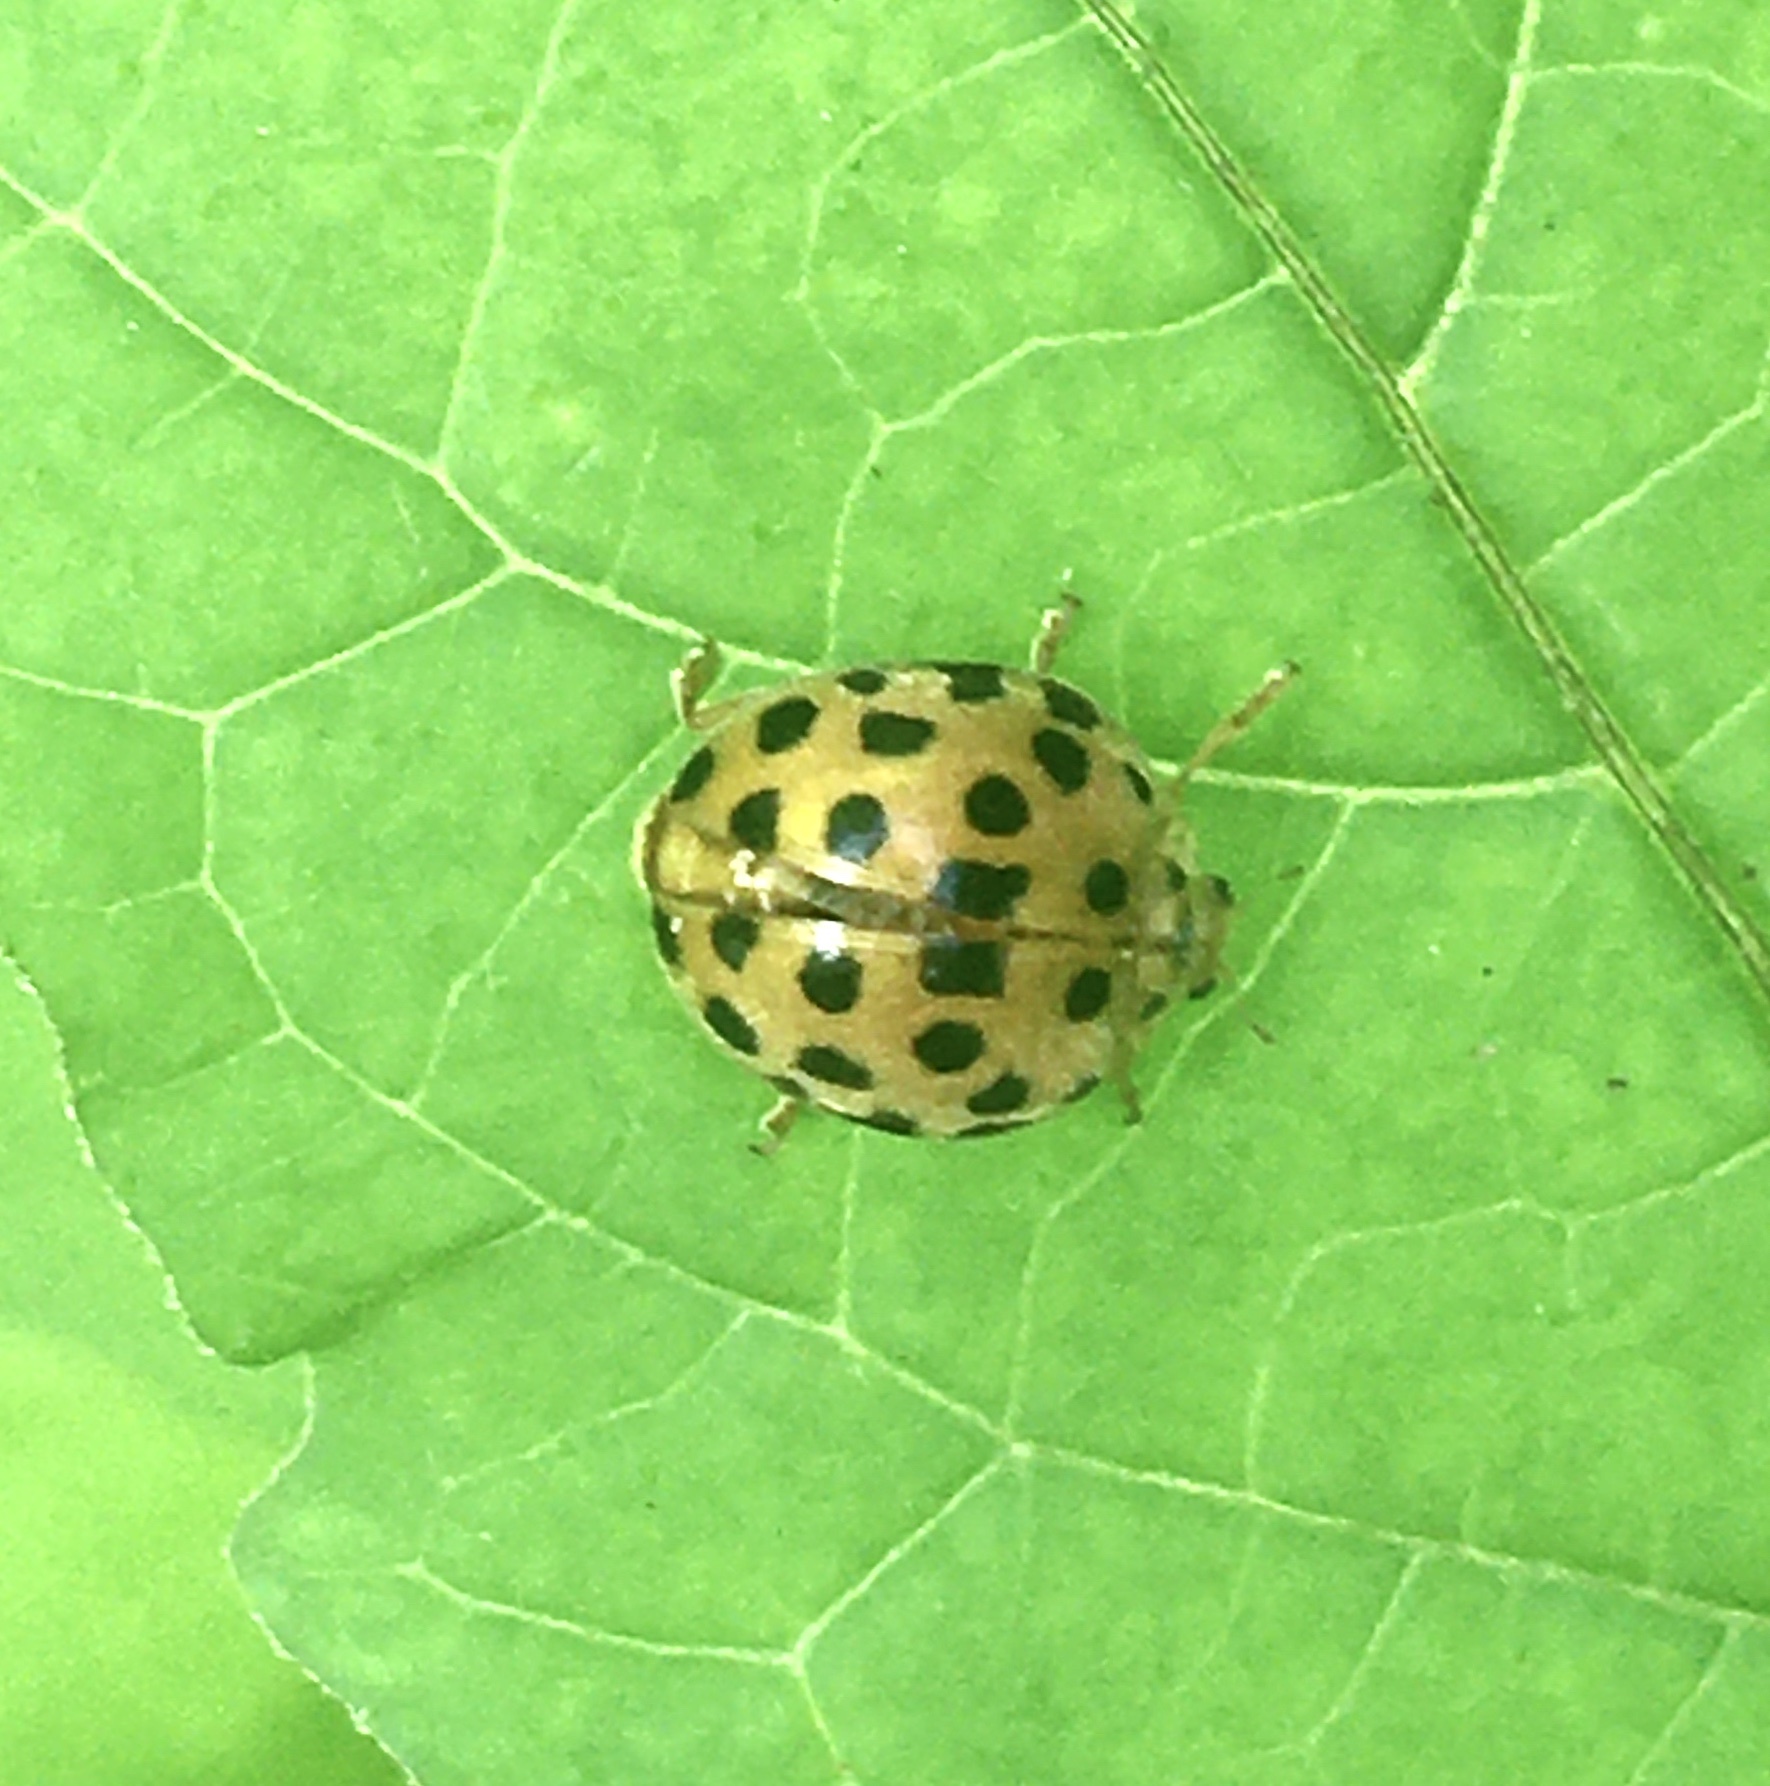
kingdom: Animalia
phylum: Arthropoda
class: Insecta
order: Coleoptera
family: Coccinellidae
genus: Henosepilachna
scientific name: Henosepilachna vigintioctopunctata
